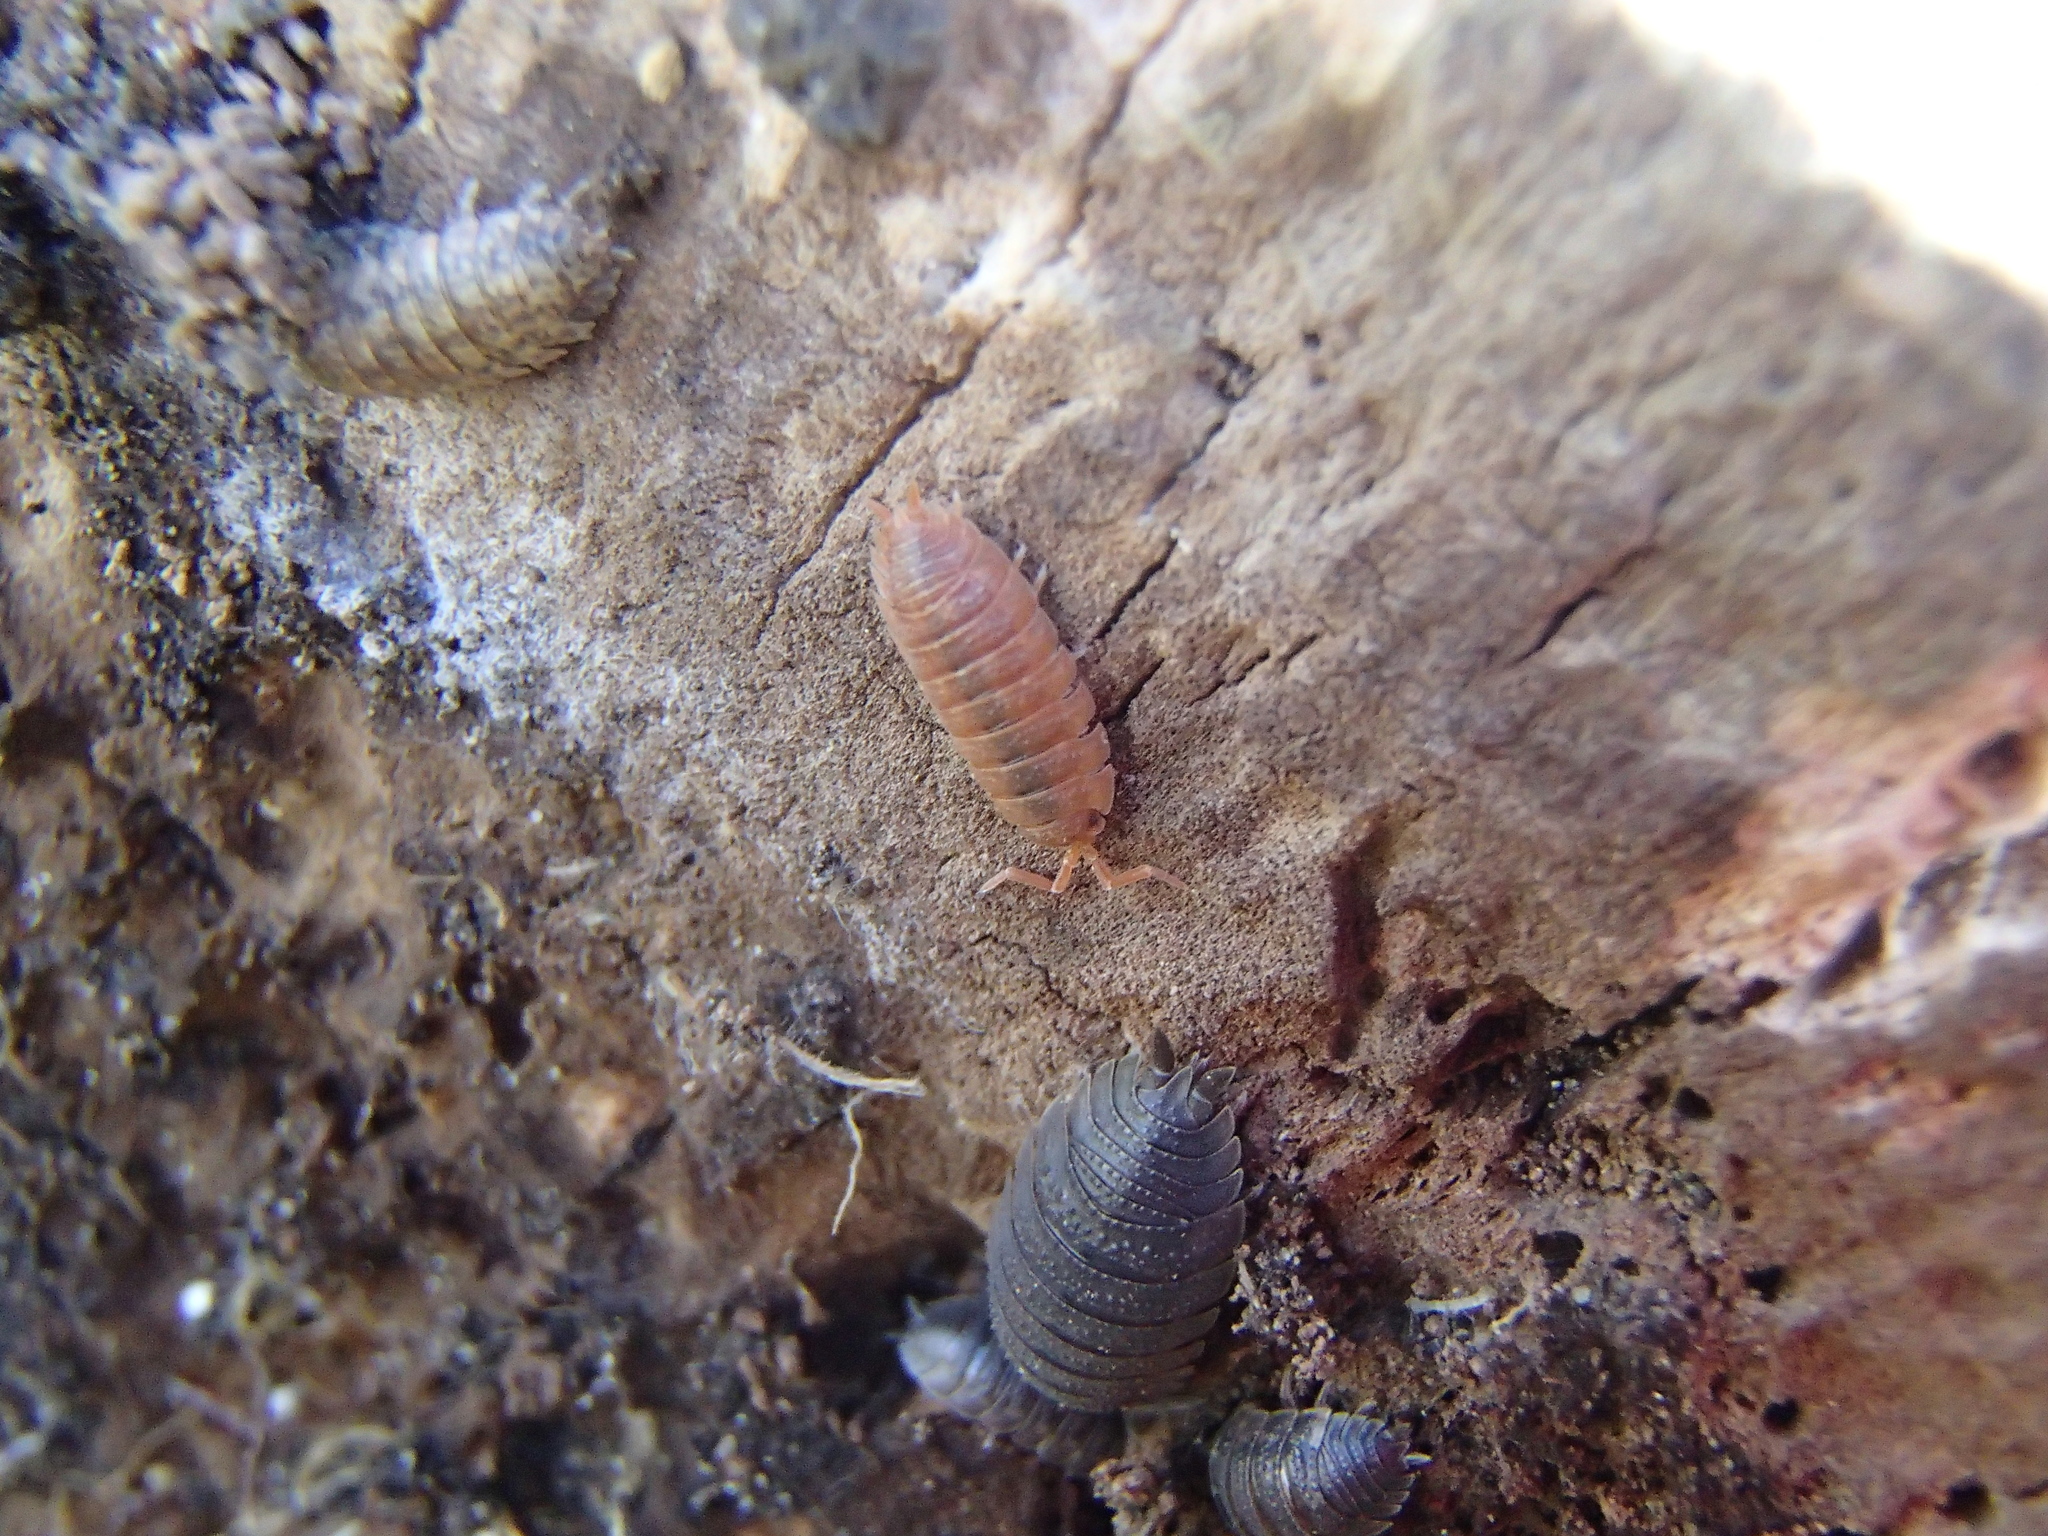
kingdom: Animalia
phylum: Arthropoda
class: Malacostraca
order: Isopoda
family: Porcellionidae
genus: Porcellio
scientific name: Porcellio scaber
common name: Common rough woodlouse
